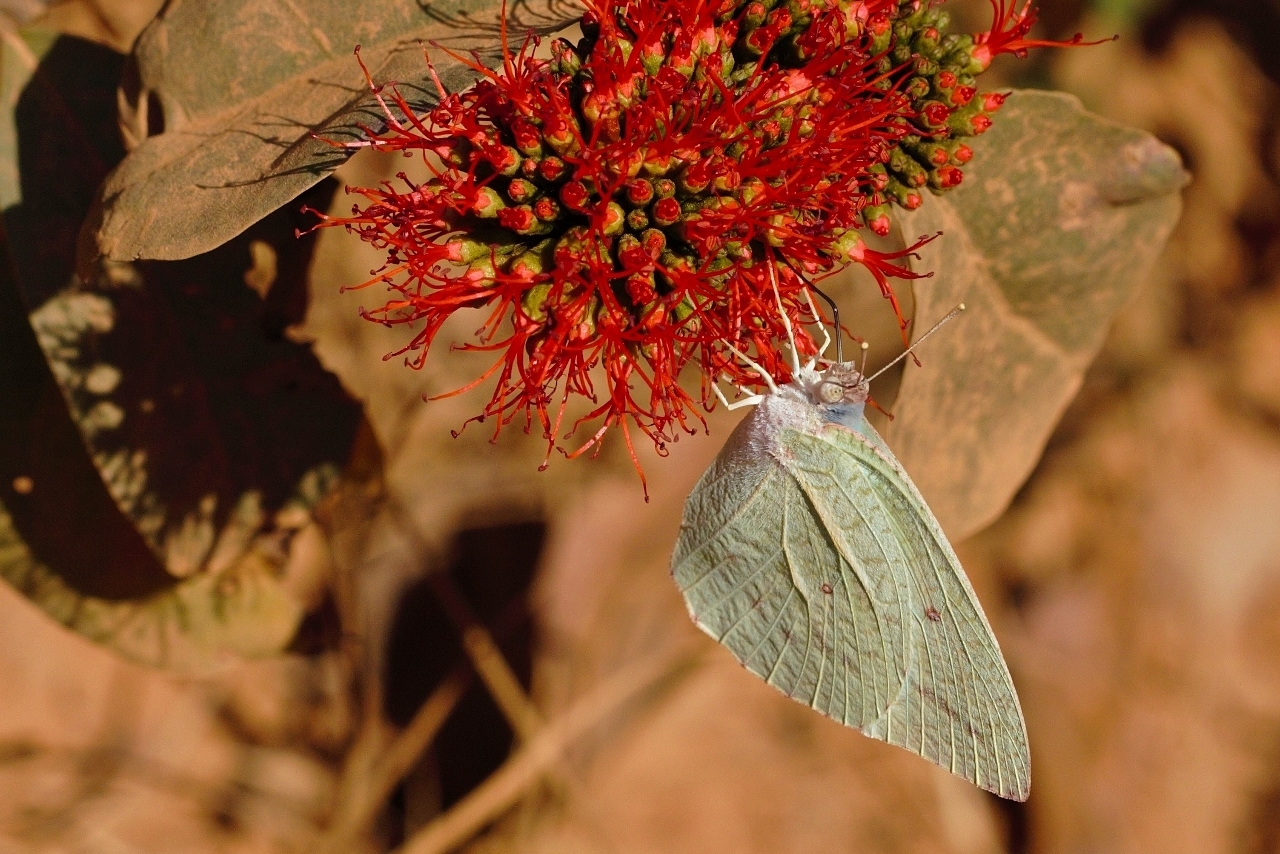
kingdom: Animalia
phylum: Arthropoda
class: Insecta
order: Lepidoptera
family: Pieridae
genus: Catopsilia
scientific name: Catopsilia florella
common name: African migrant
